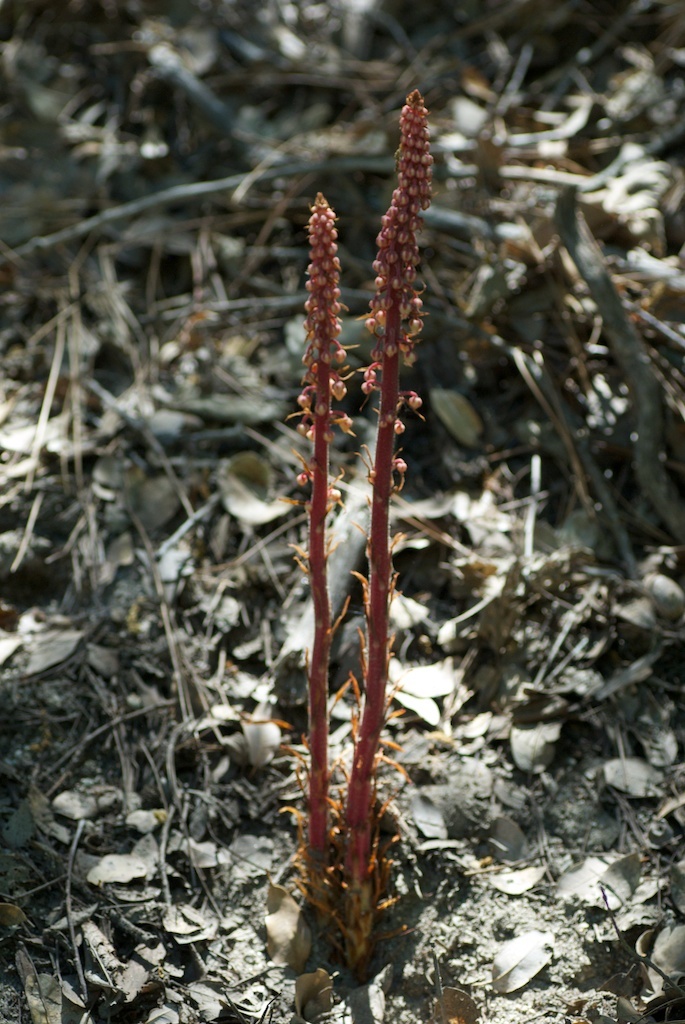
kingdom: Plantae
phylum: Tracheophyta
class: Magnoliopsida
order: Ericales
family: Ericaceae
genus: Pterospora
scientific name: Pterospora andromedea
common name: Giant bird's-nest
